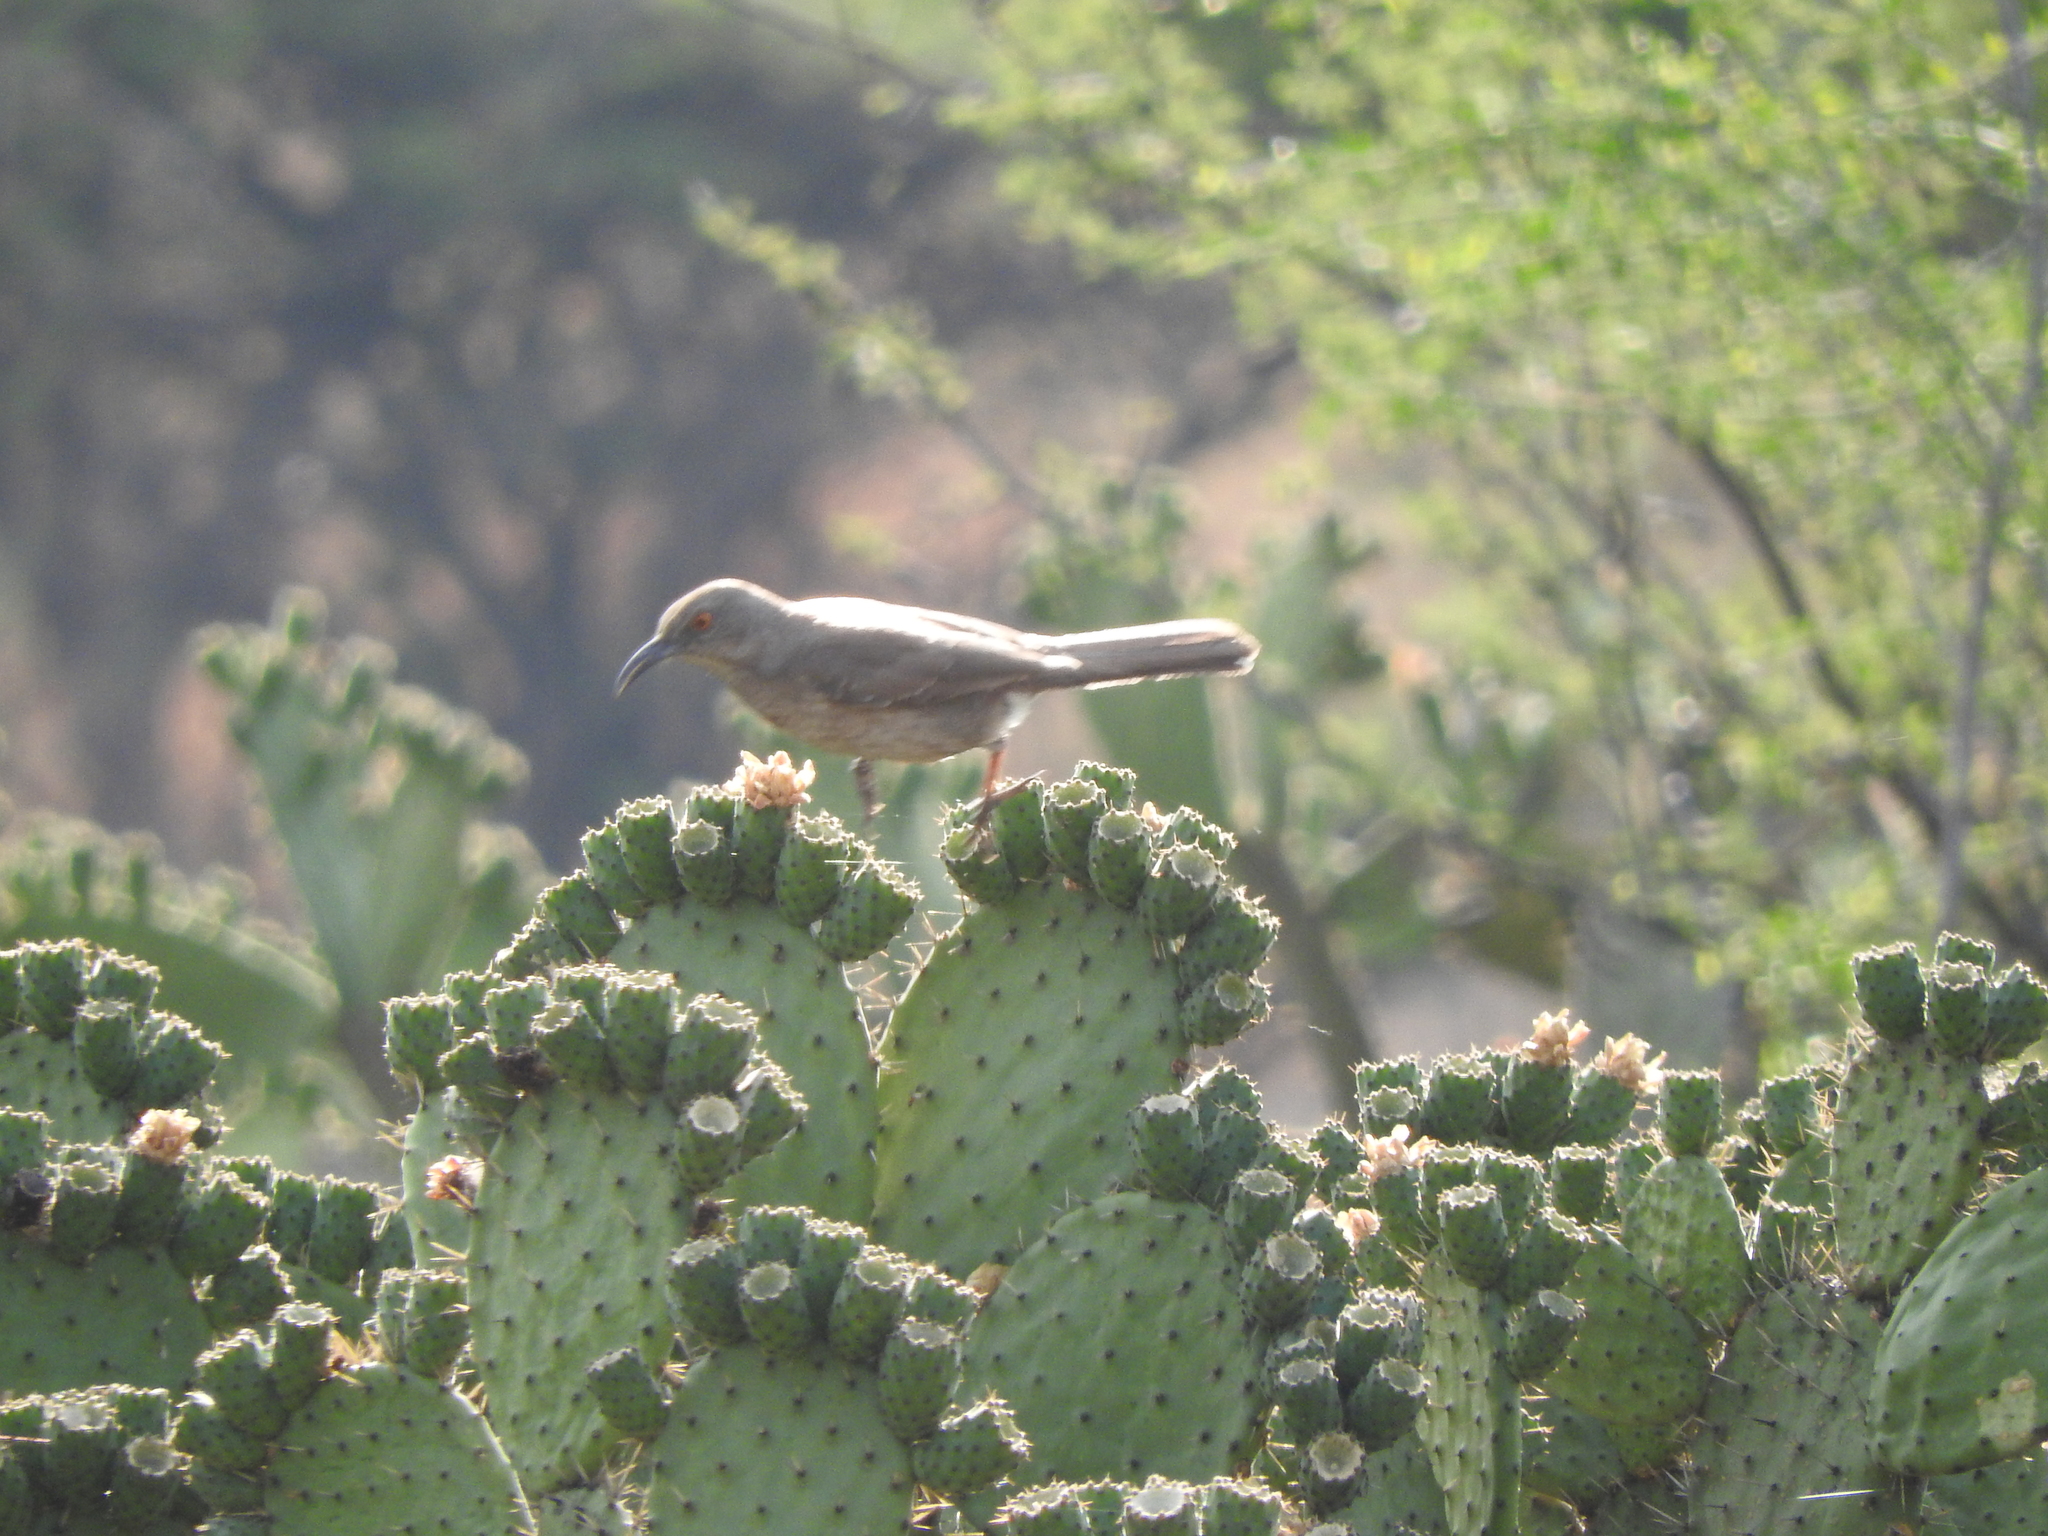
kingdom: Animalia
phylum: Chordata
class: Aves
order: Passeriformes
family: Mimidae
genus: Toxostoma
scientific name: Toxostoma curvirostre
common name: Curve-billed thrasher
